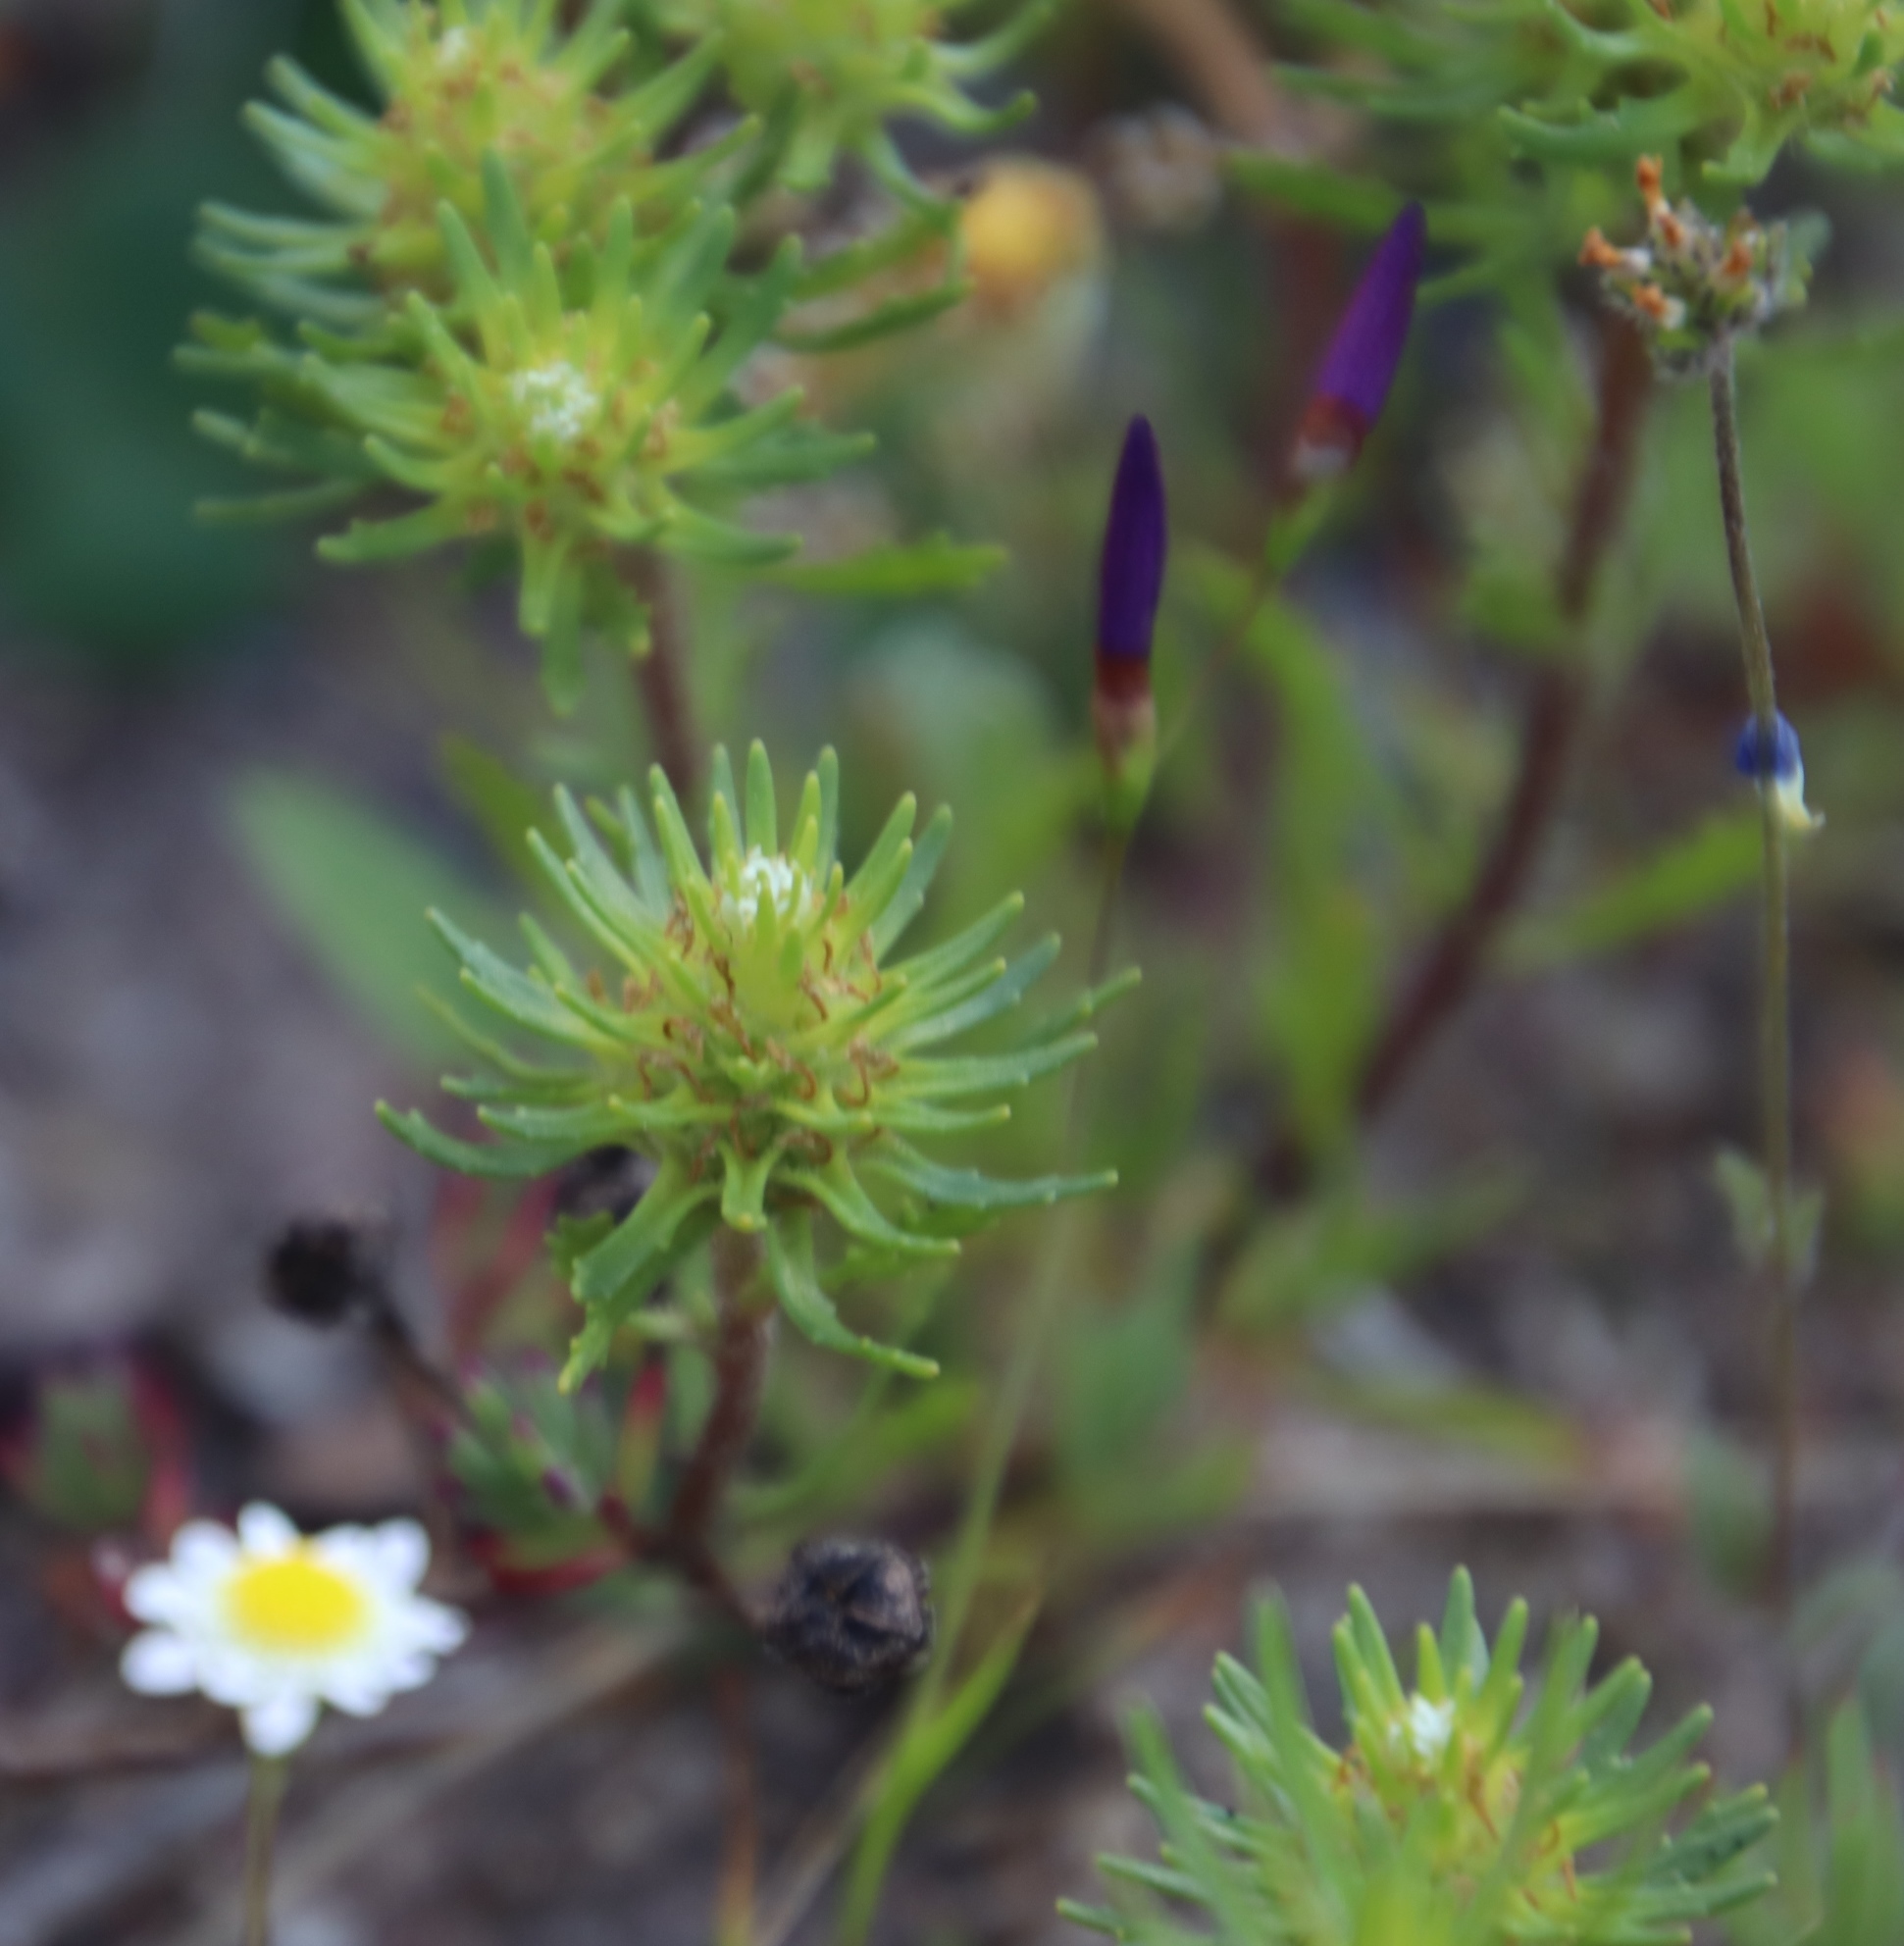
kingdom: Plantae
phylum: Tracheophyta
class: Magnoliopsida
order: Lamiales
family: Scrophulariaceae
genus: Dischisma
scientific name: Dischisma capitatum
